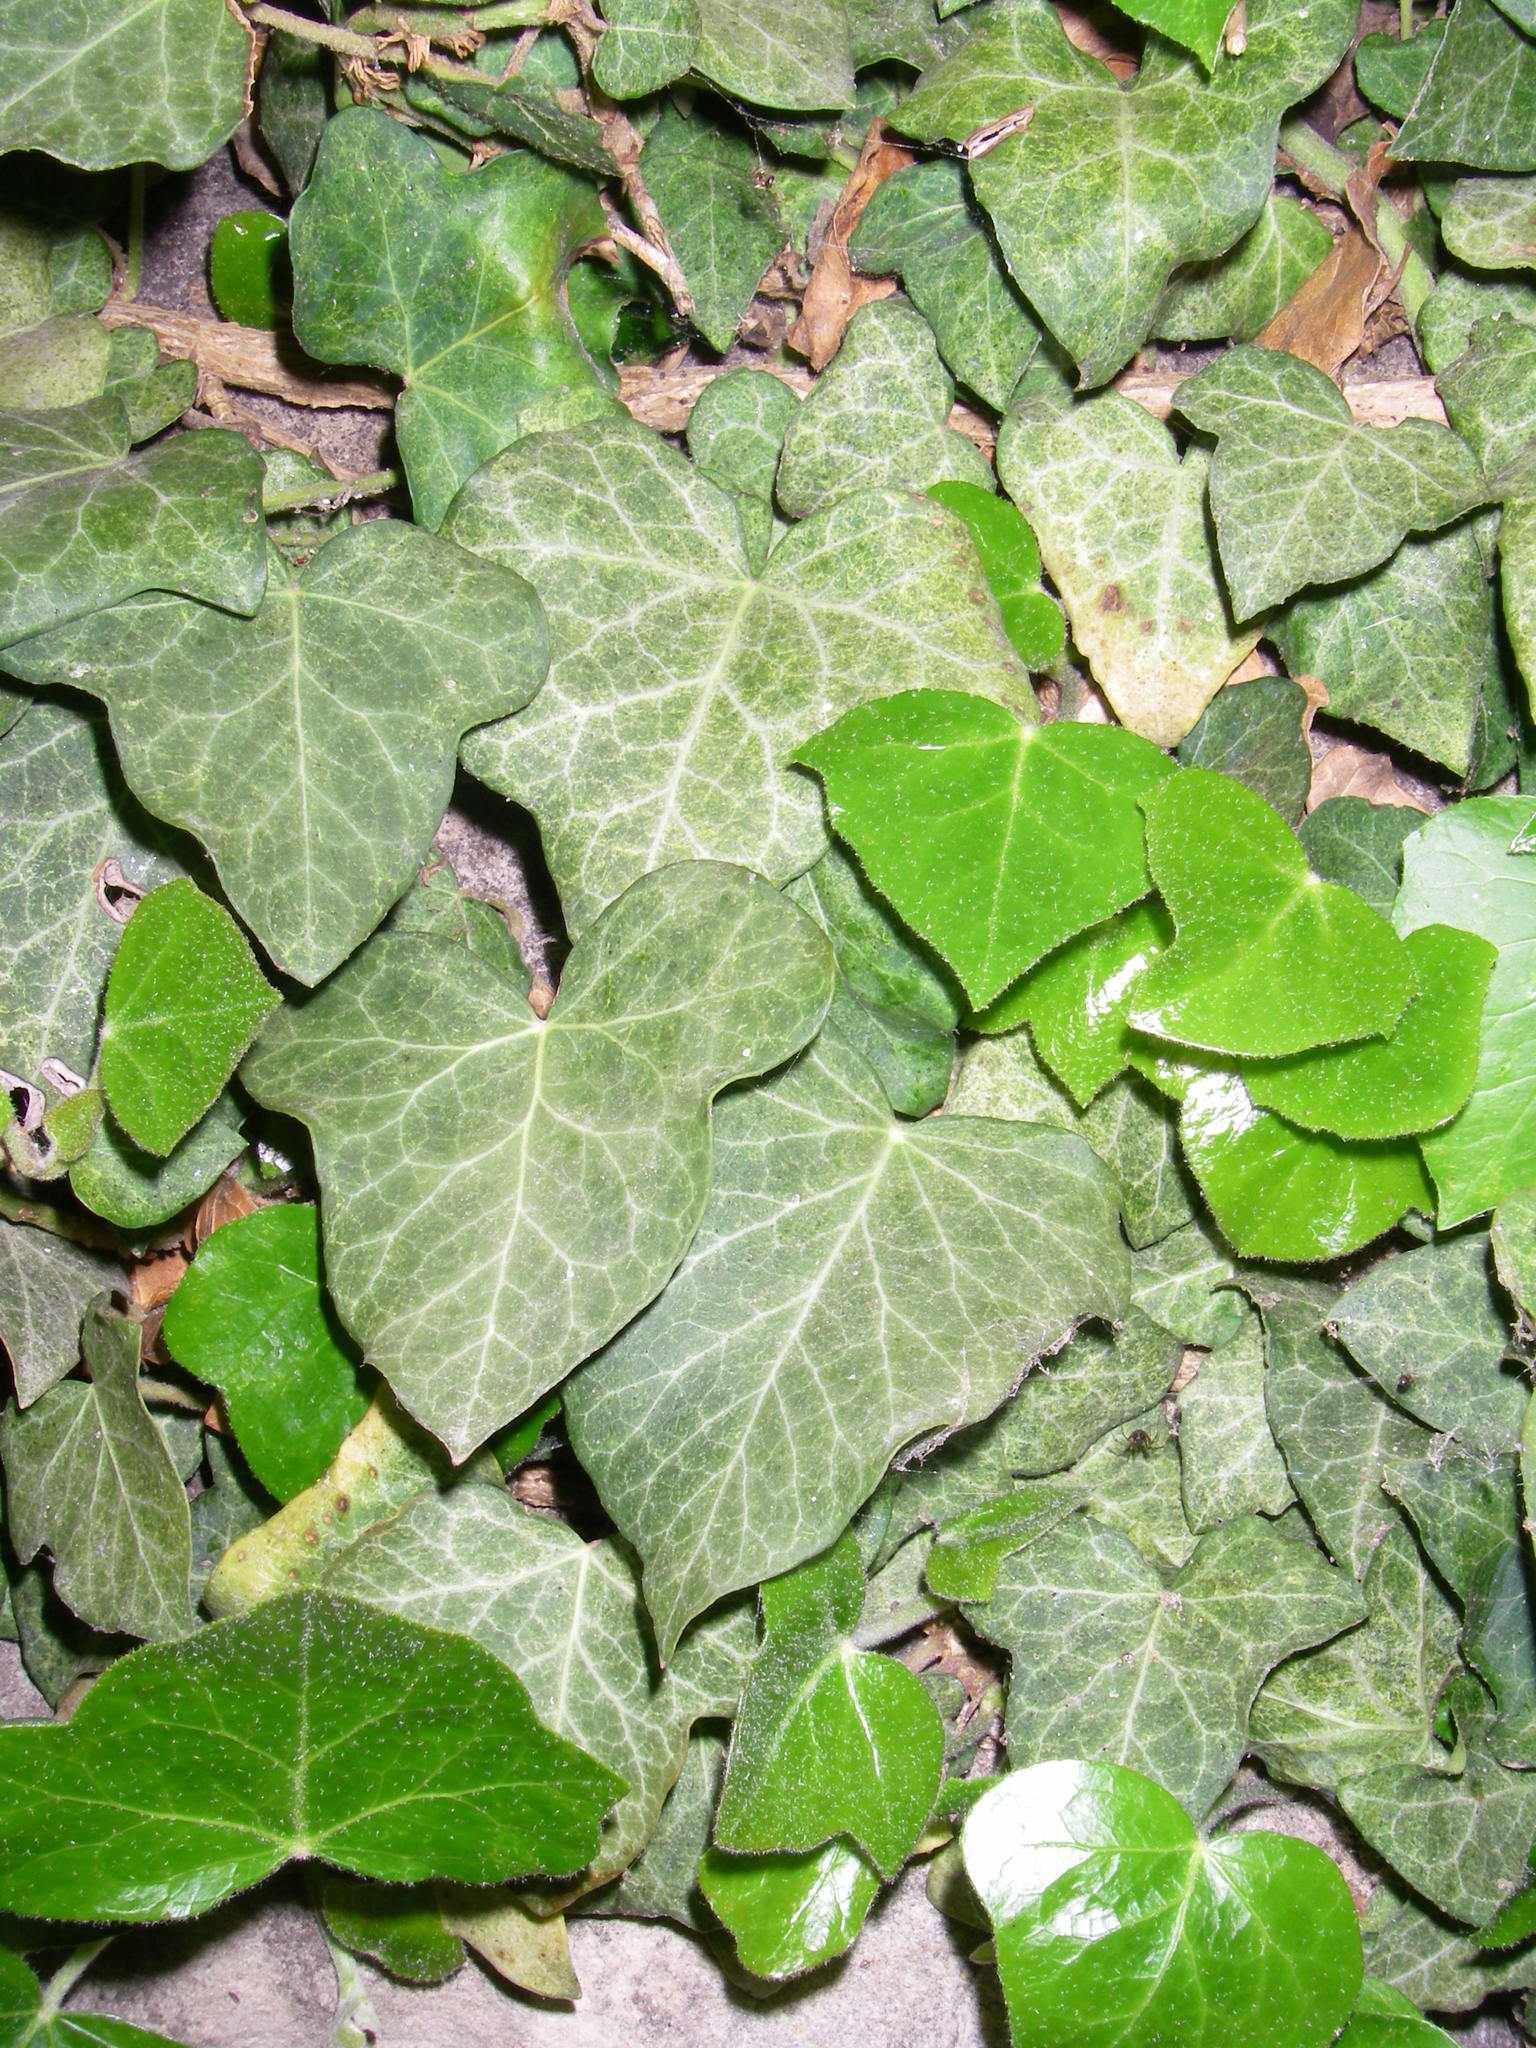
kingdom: Plantae
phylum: Tracheophyta
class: Magnoliopsida
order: Apiales
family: Araliaceae
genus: Hedera
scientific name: Hedera helix
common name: Ivy
